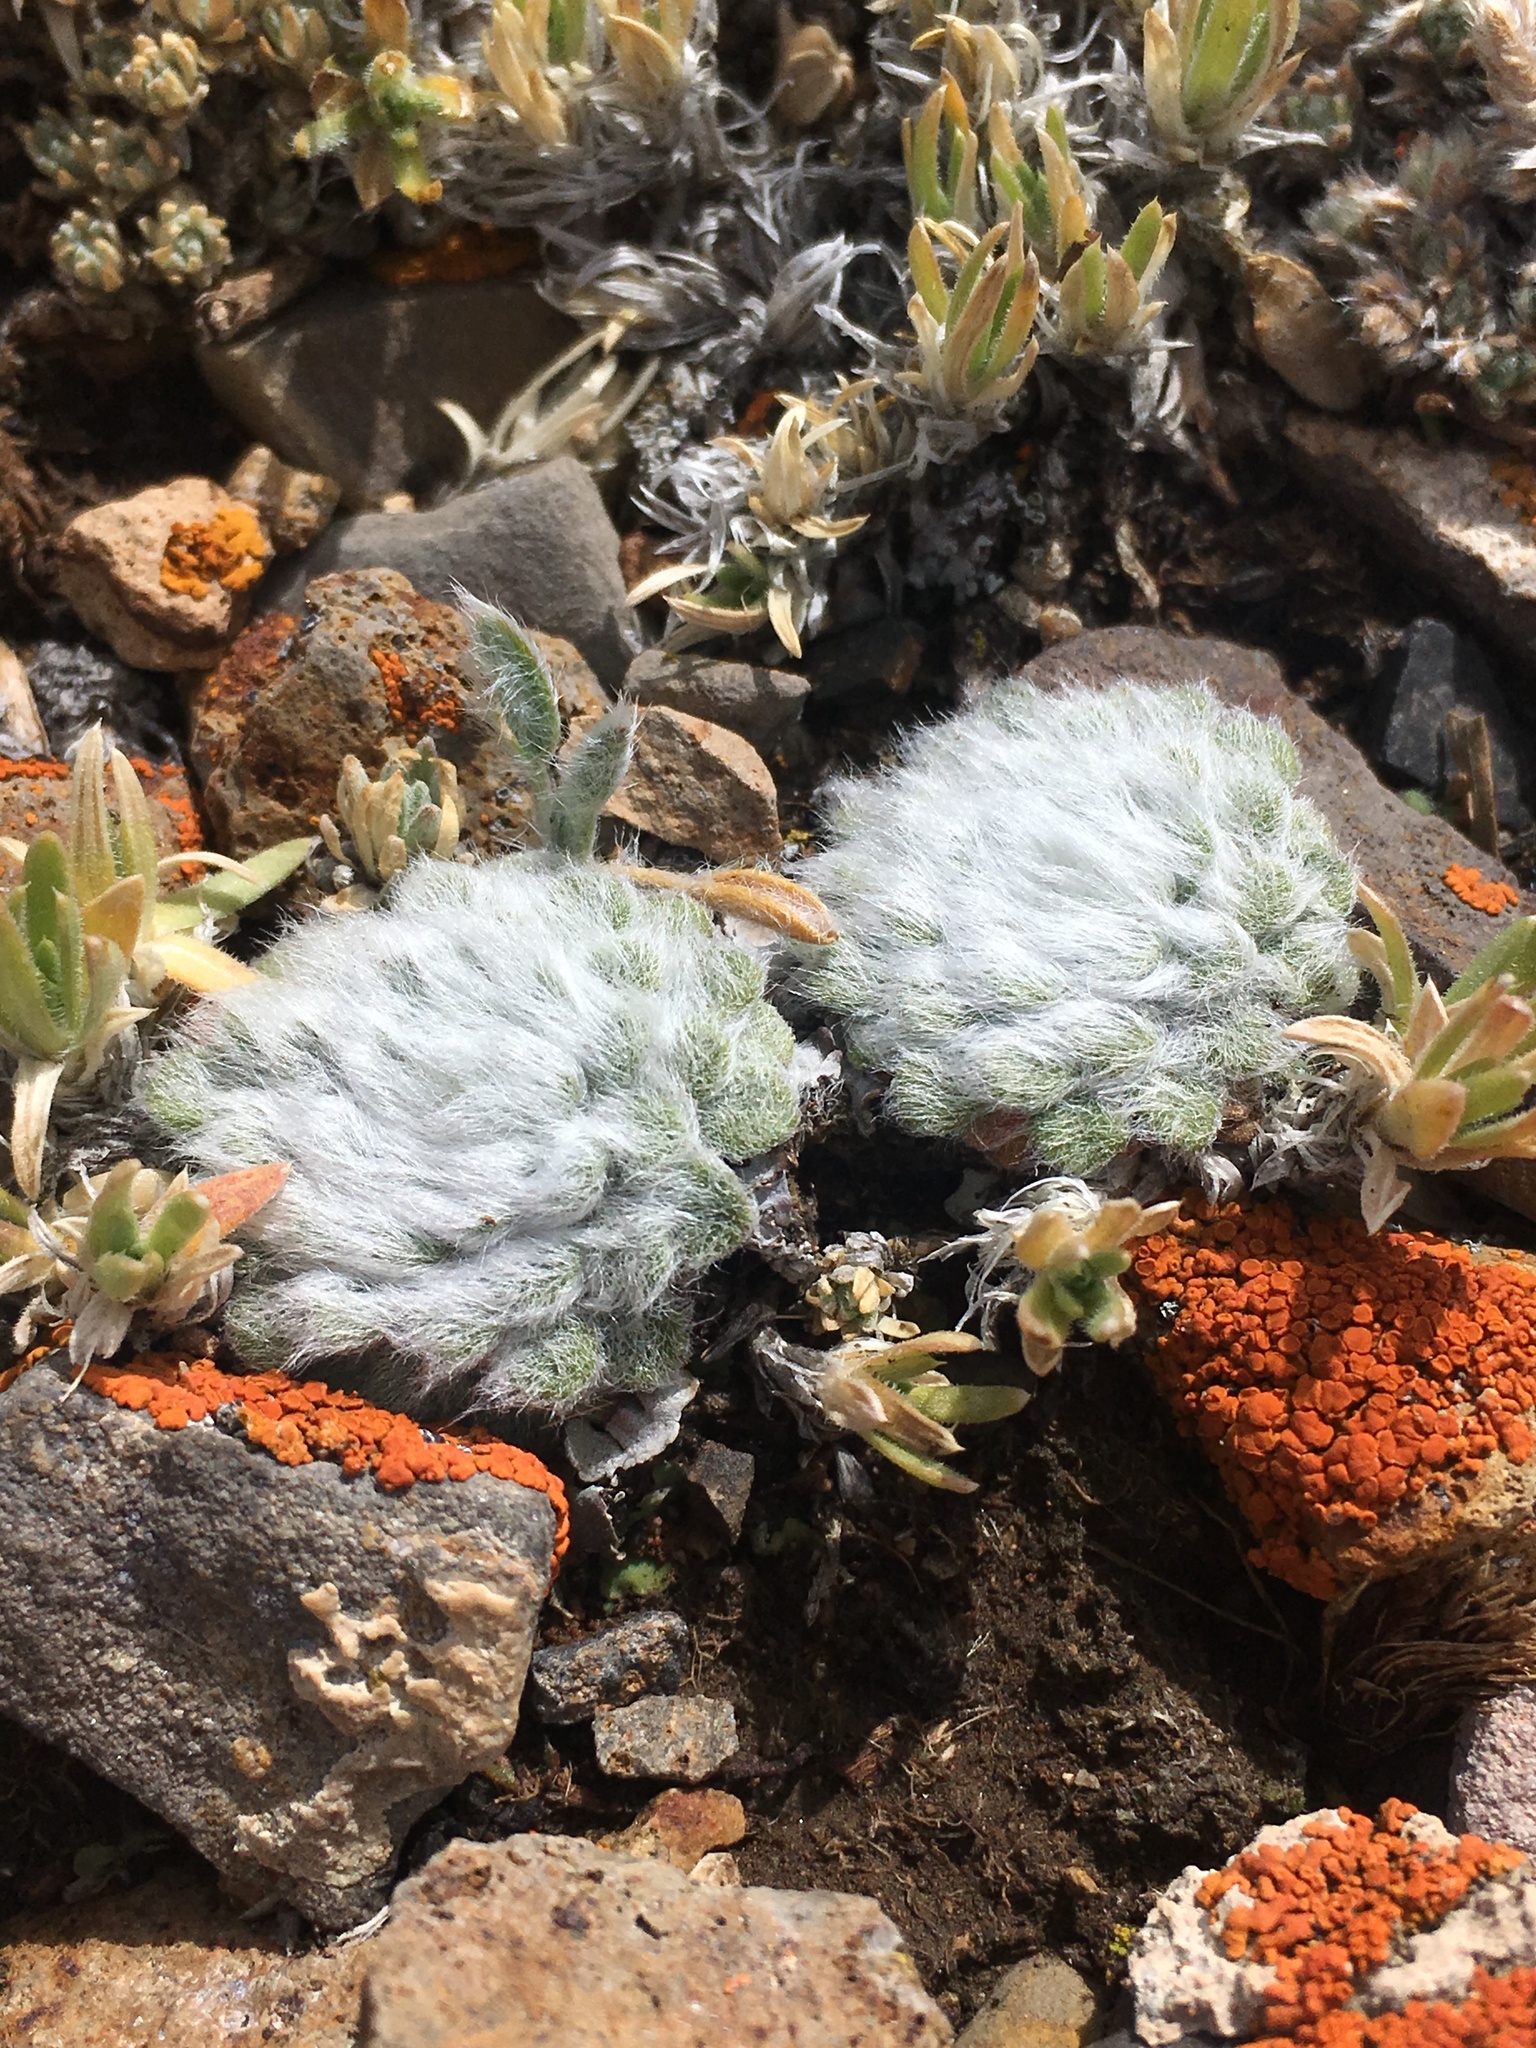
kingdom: Plantae
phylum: Tracheophyta
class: Magnoliopsida
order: Asterales
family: Asteraceae
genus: Townsendia
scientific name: Townsendia condensata
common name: Alpine townsend daisy
